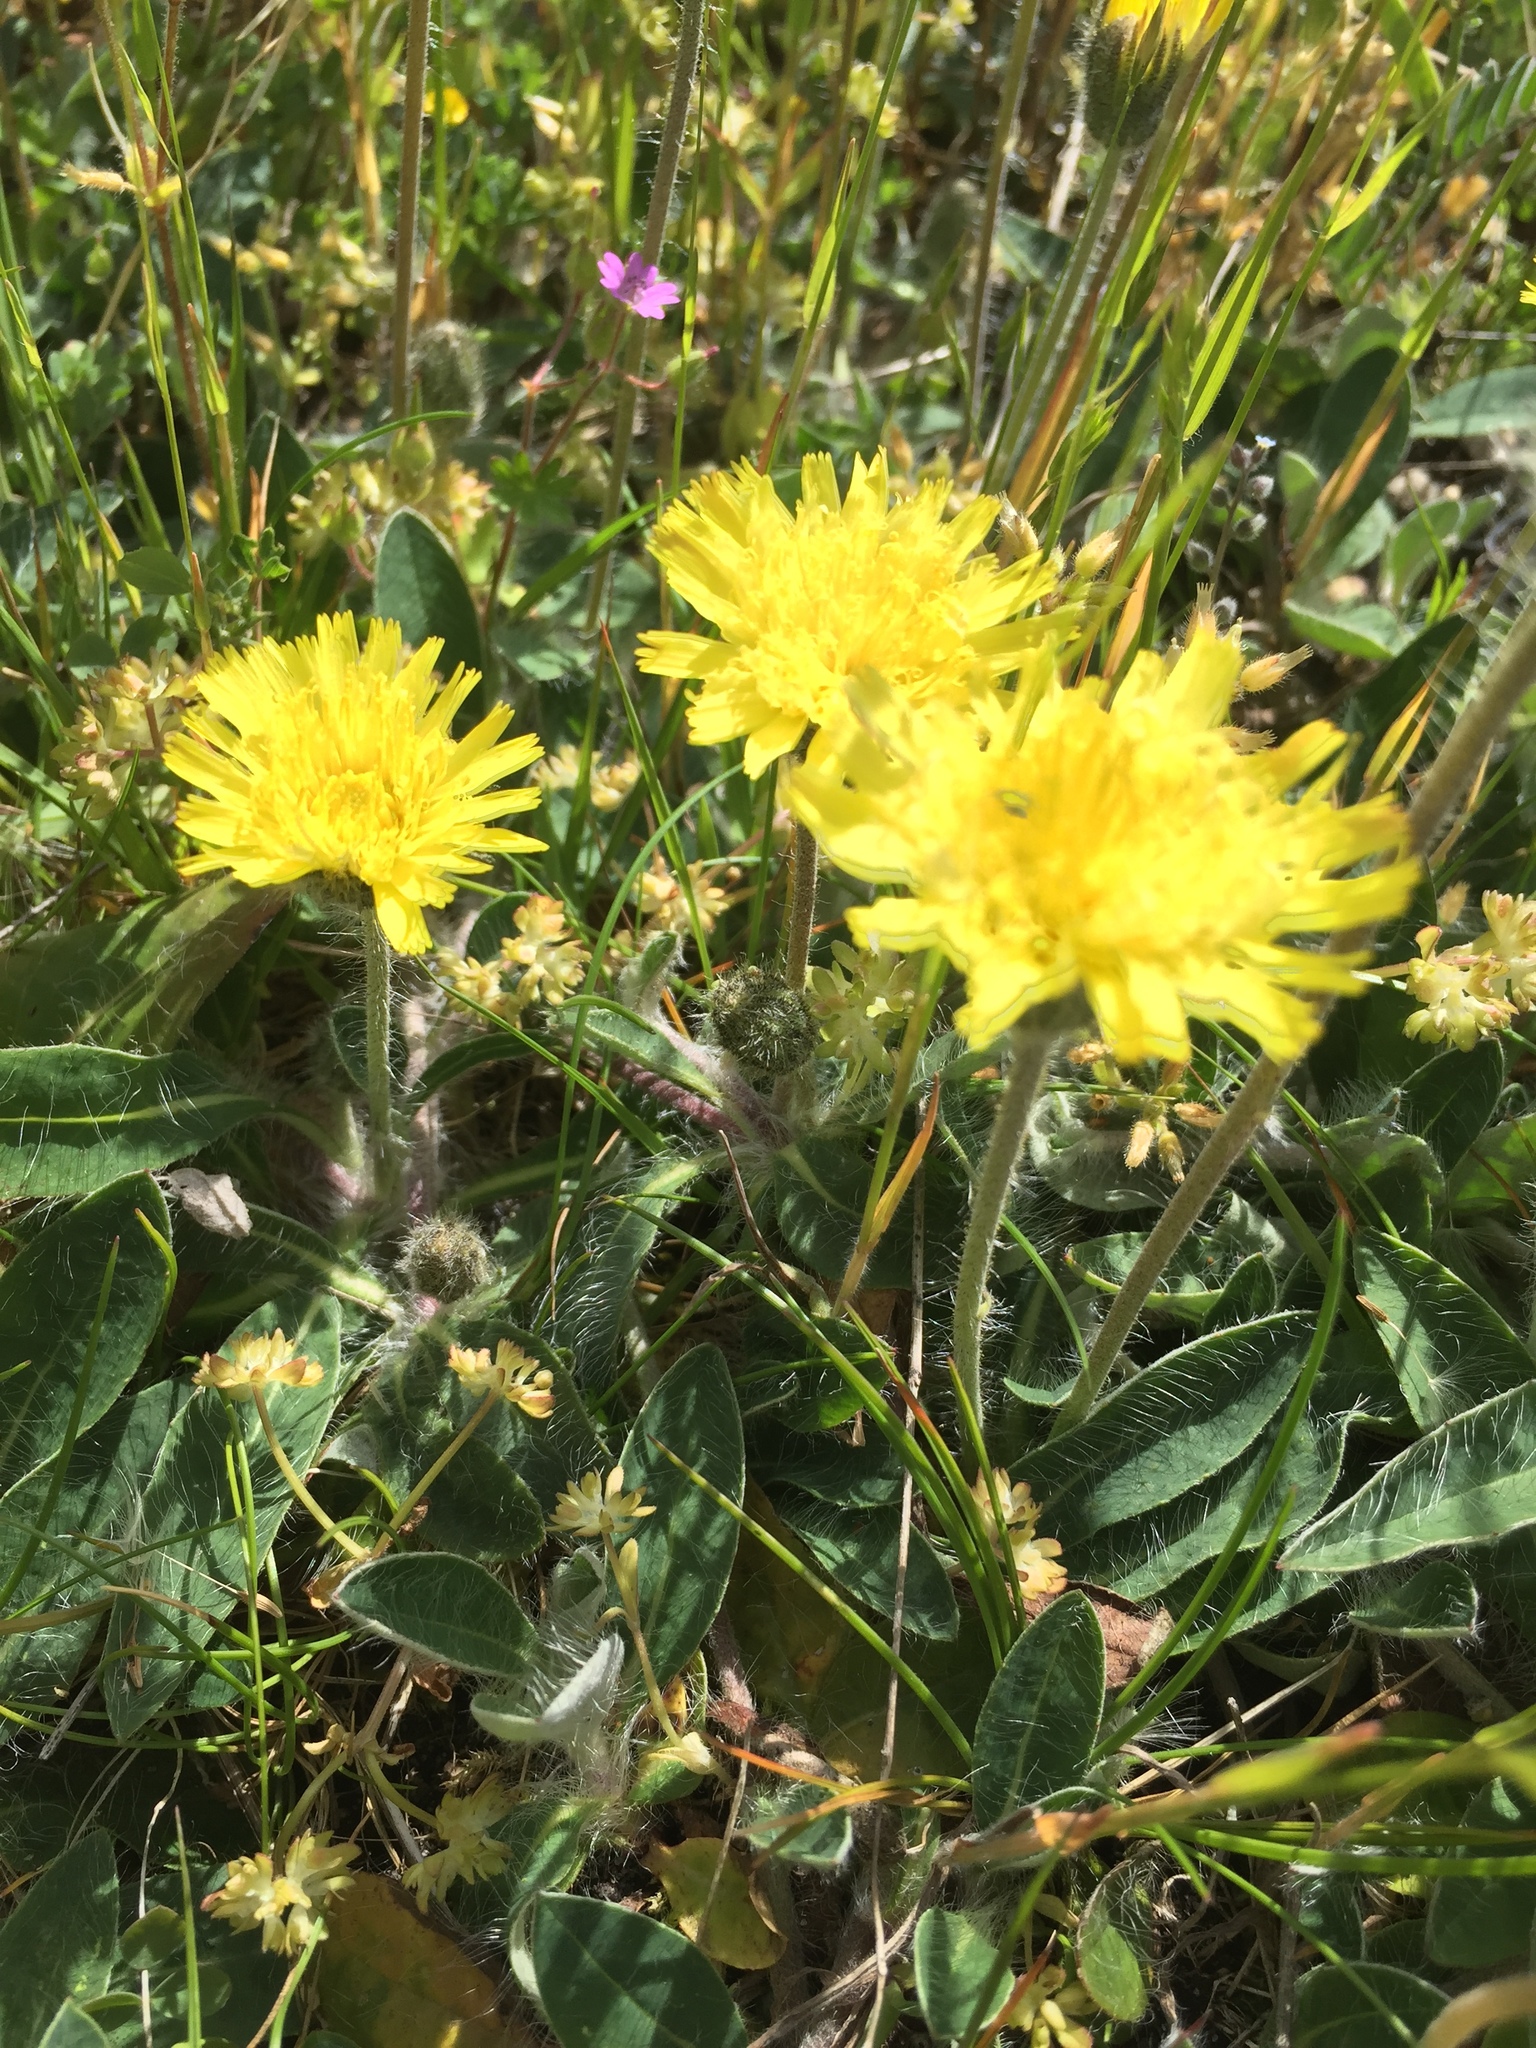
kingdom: Plantae
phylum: Tracheophyta
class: Magnoliopsida
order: Asterales
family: Asteraceae
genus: Pilosella
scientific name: Pilosella officinarum
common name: Mouse-ear hawkweed
